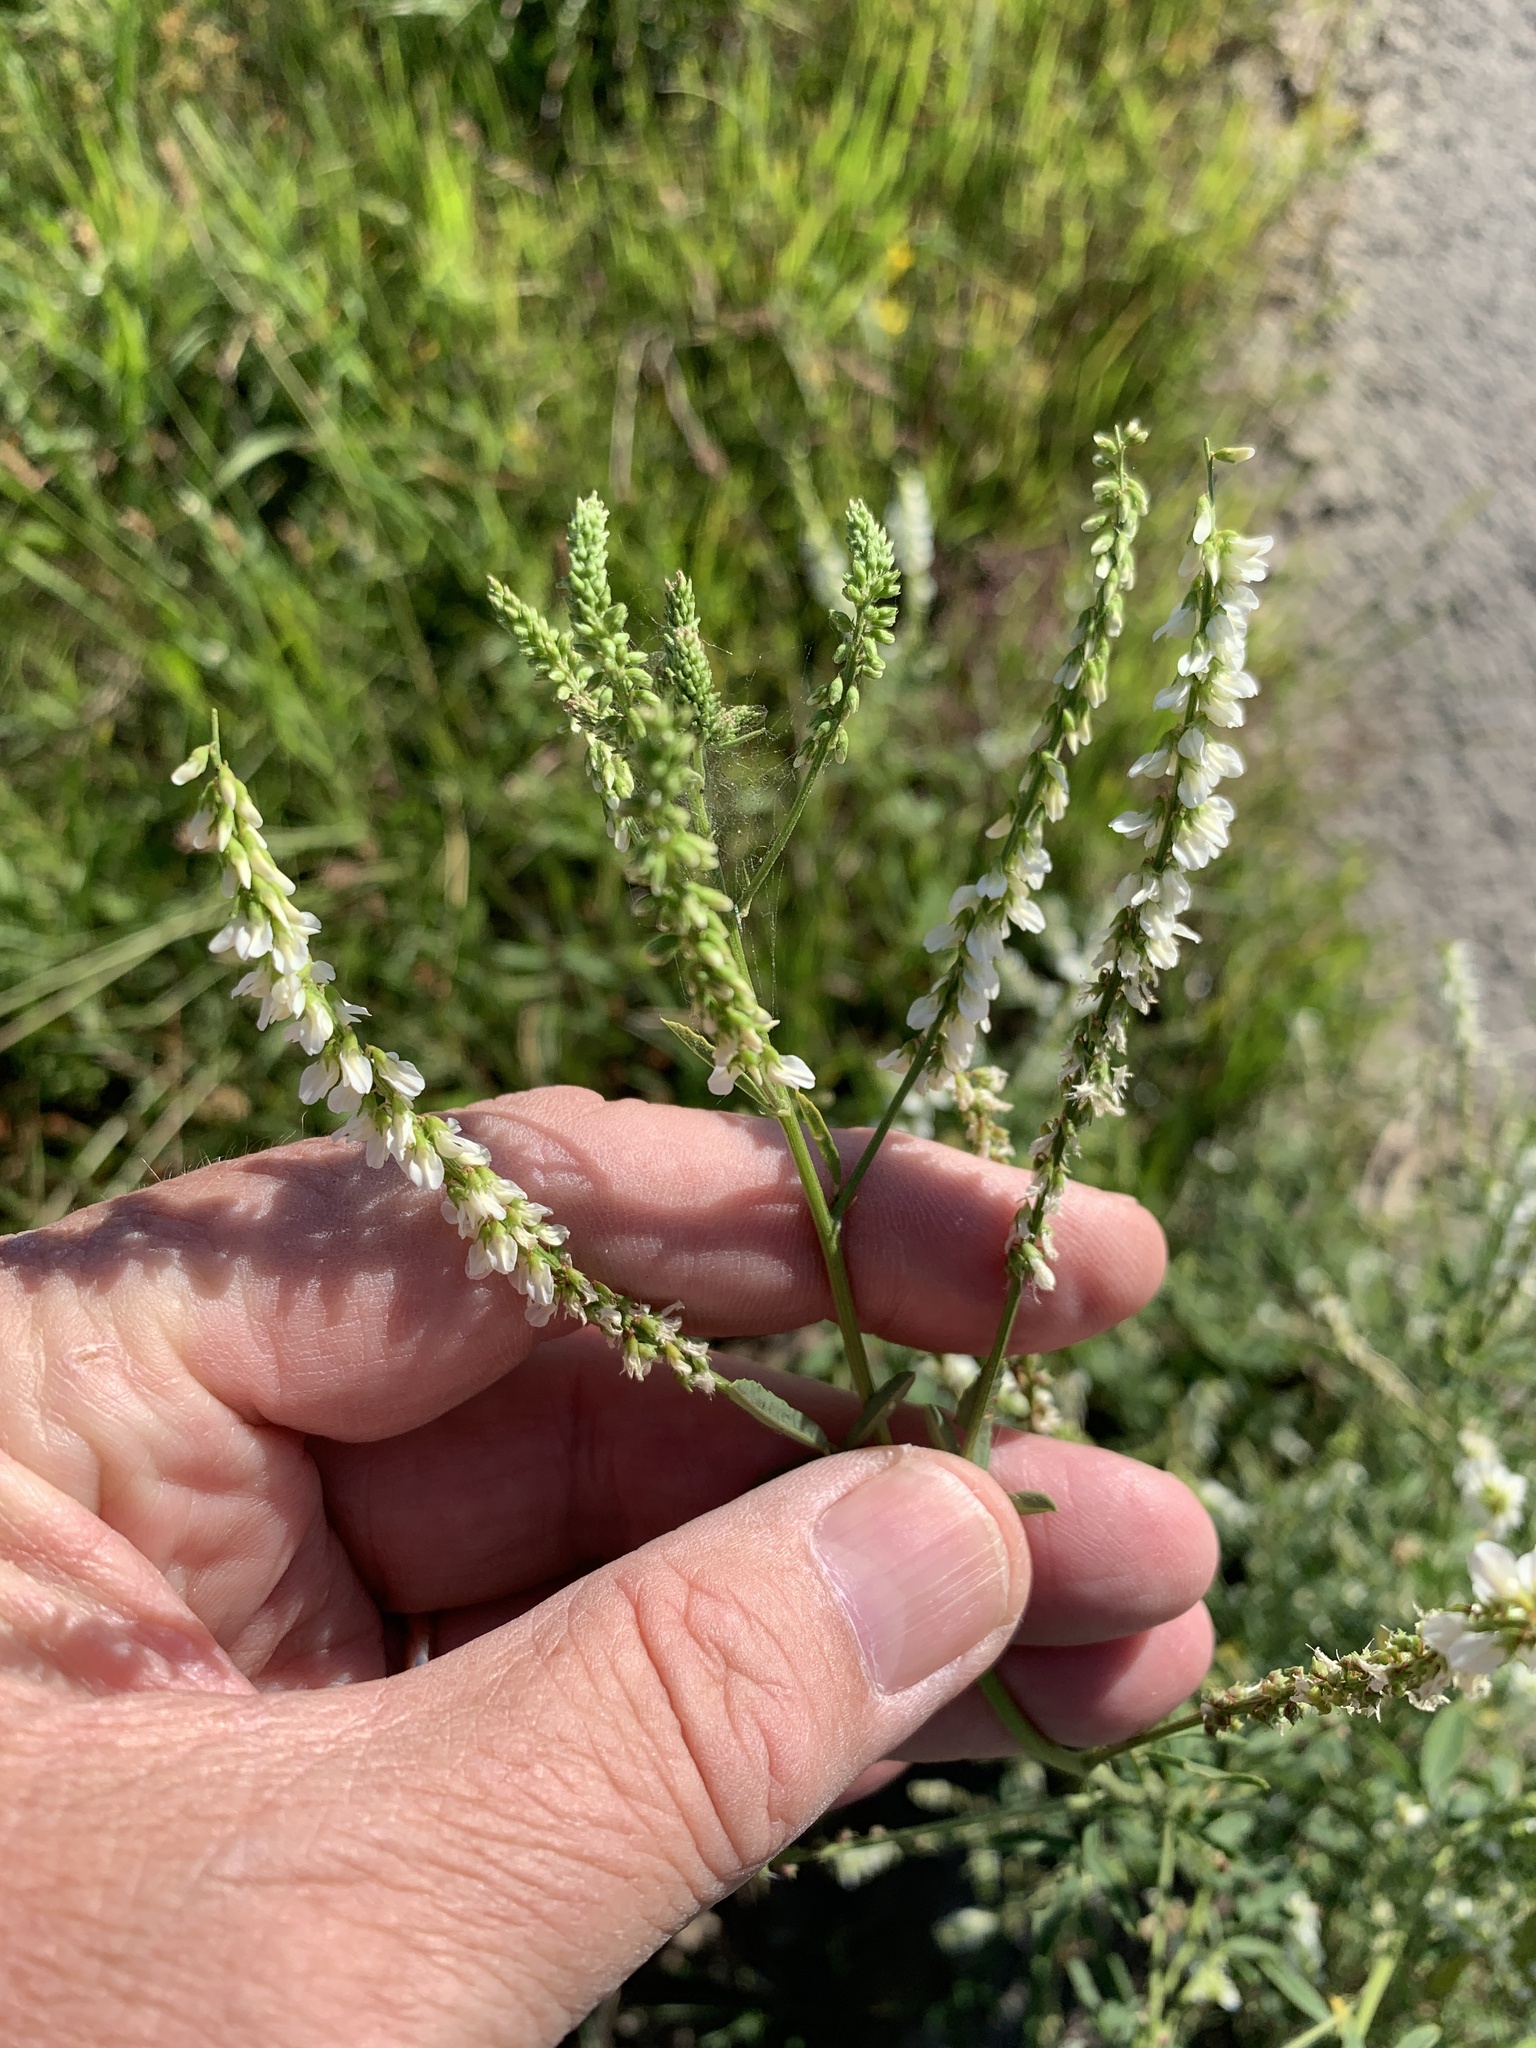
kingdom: Plantae
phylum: Tracheophyta
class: Magnoliopsida
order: Fabales
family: Fabaceae
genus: Melilotus
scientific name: Melilotus albus
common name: White melilot
